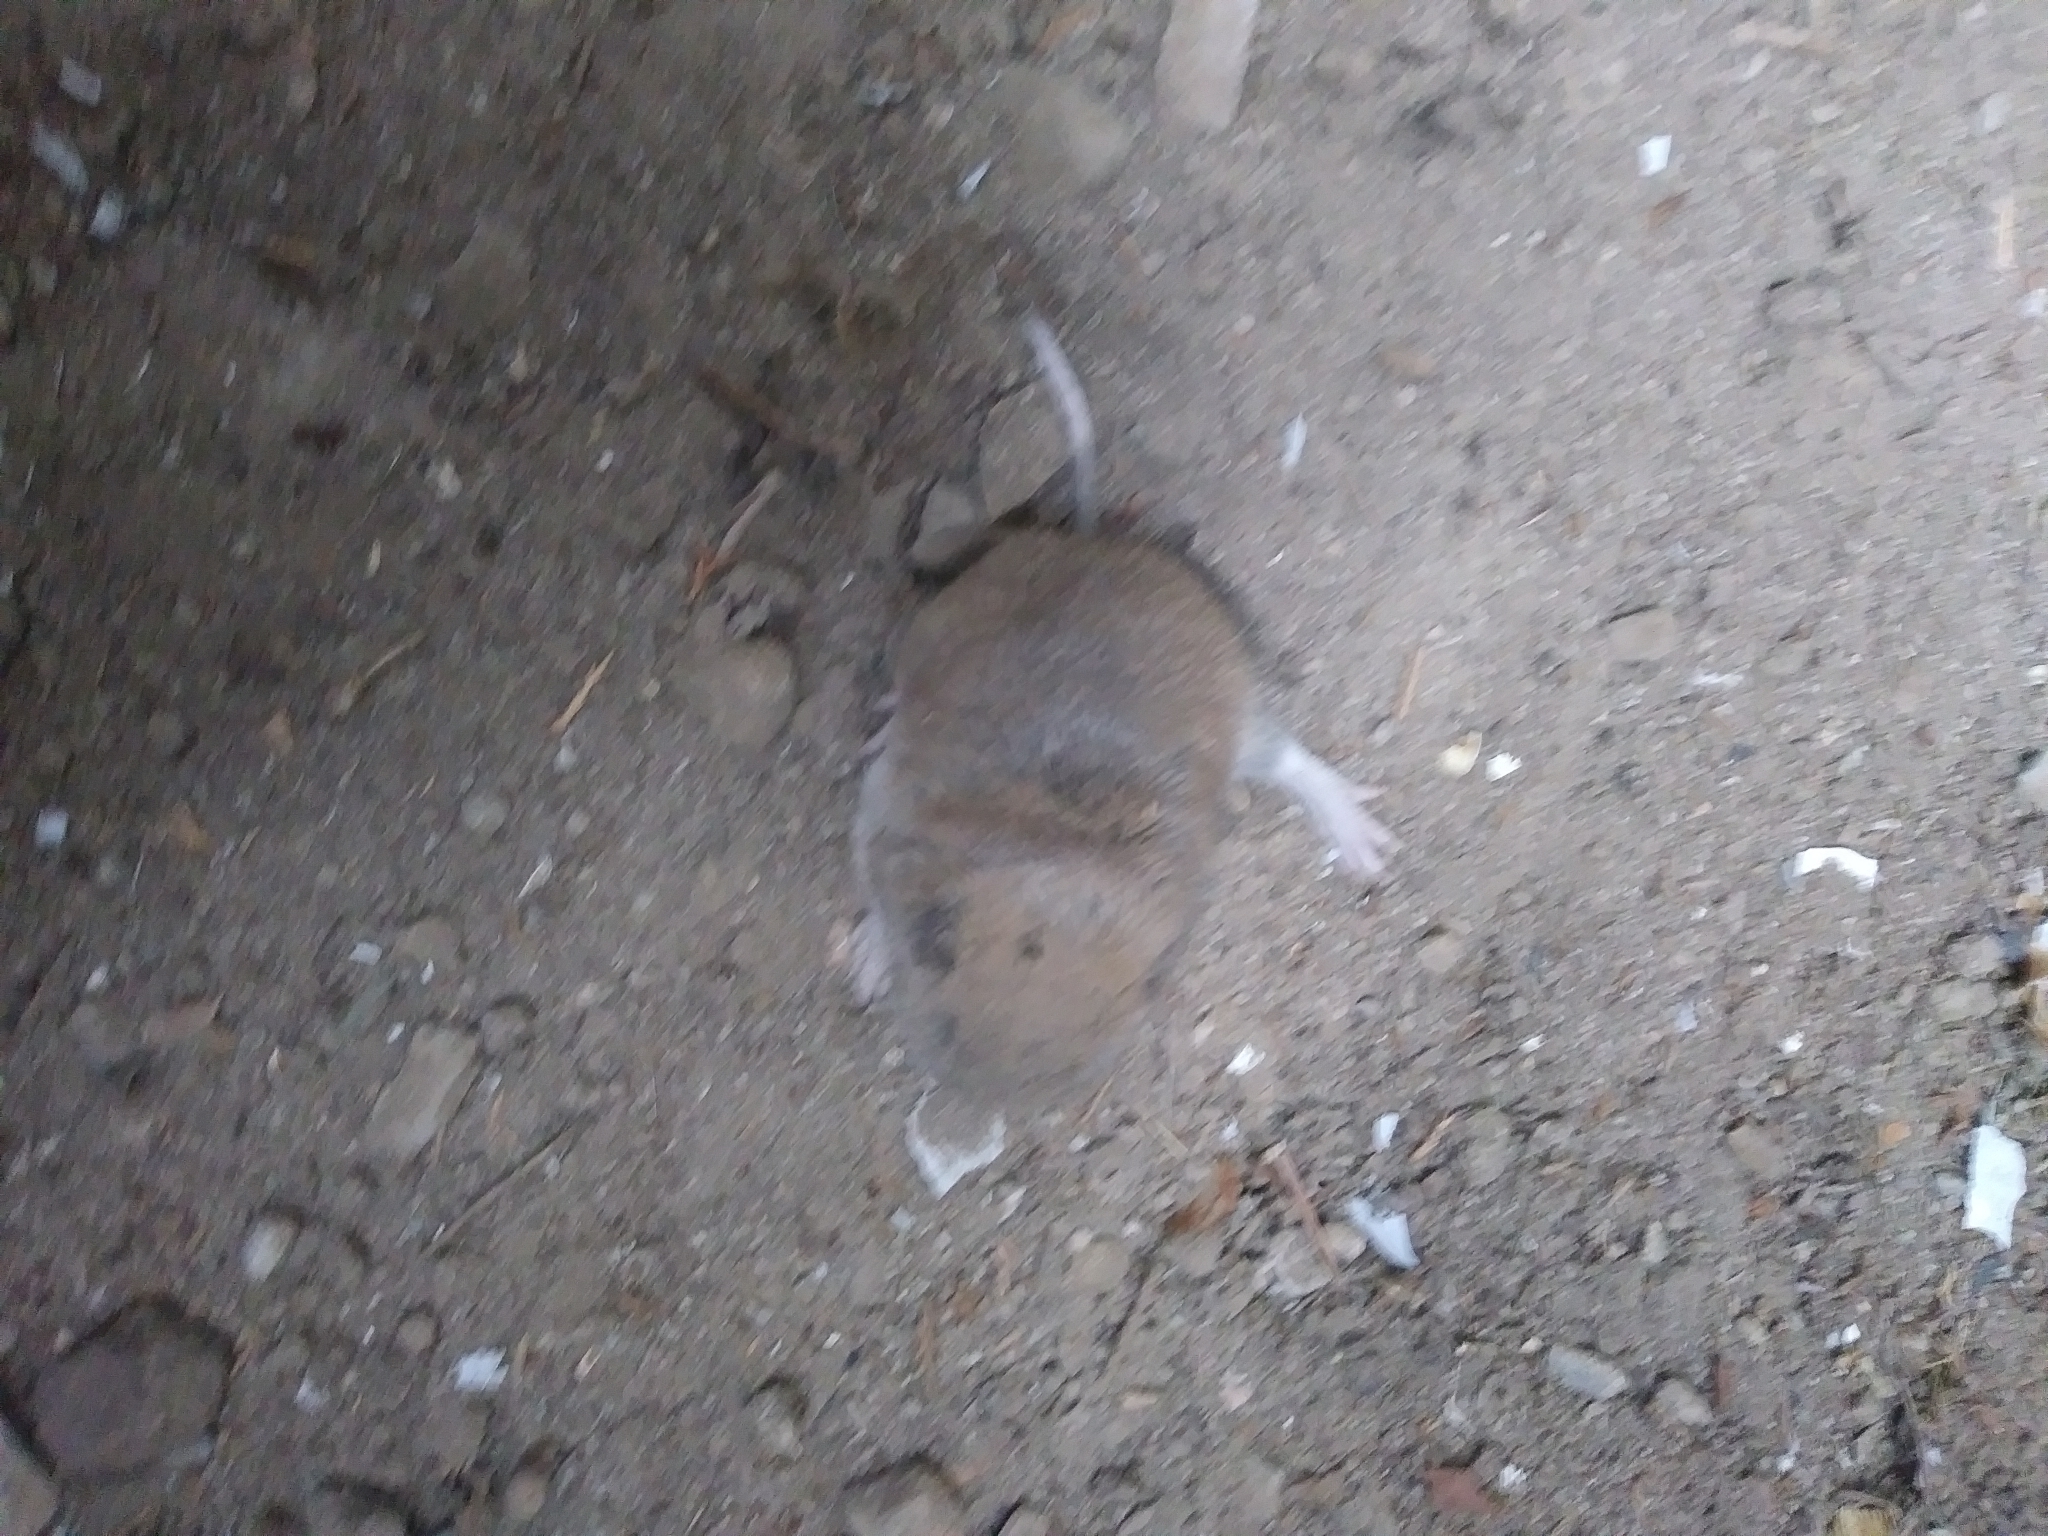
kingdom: Animalia
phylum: Chordata
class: Mammalia
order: Rodentia
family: Geomyidae
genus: Thomomys
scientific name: Thomomys talpoides
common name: Northern pocket gopher
